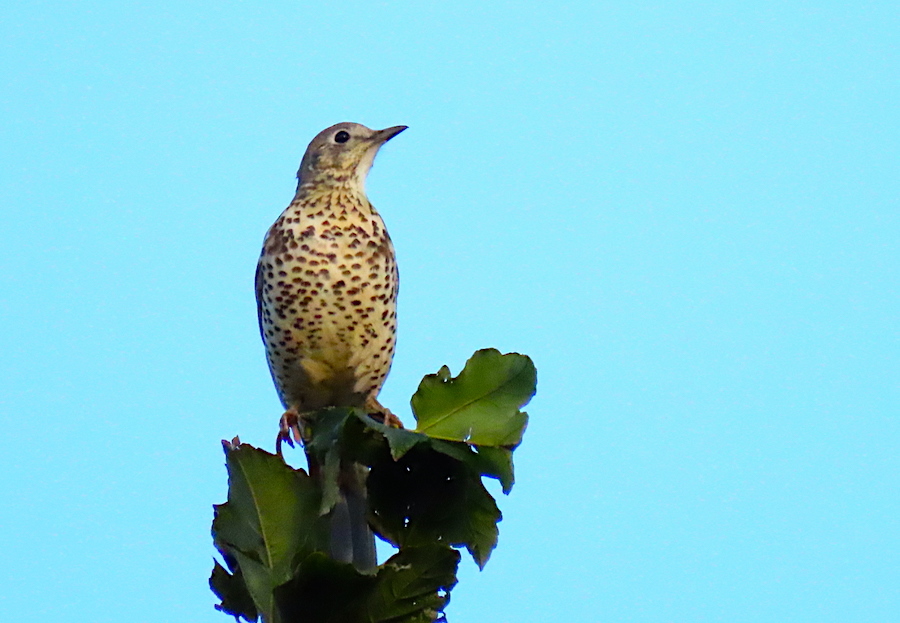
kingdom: Animalia
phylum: Chordata
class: Aves
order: Passeriformes
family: Turdidae
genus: Turdus
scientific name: Turdus viscivorus
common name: Mistle thrush
